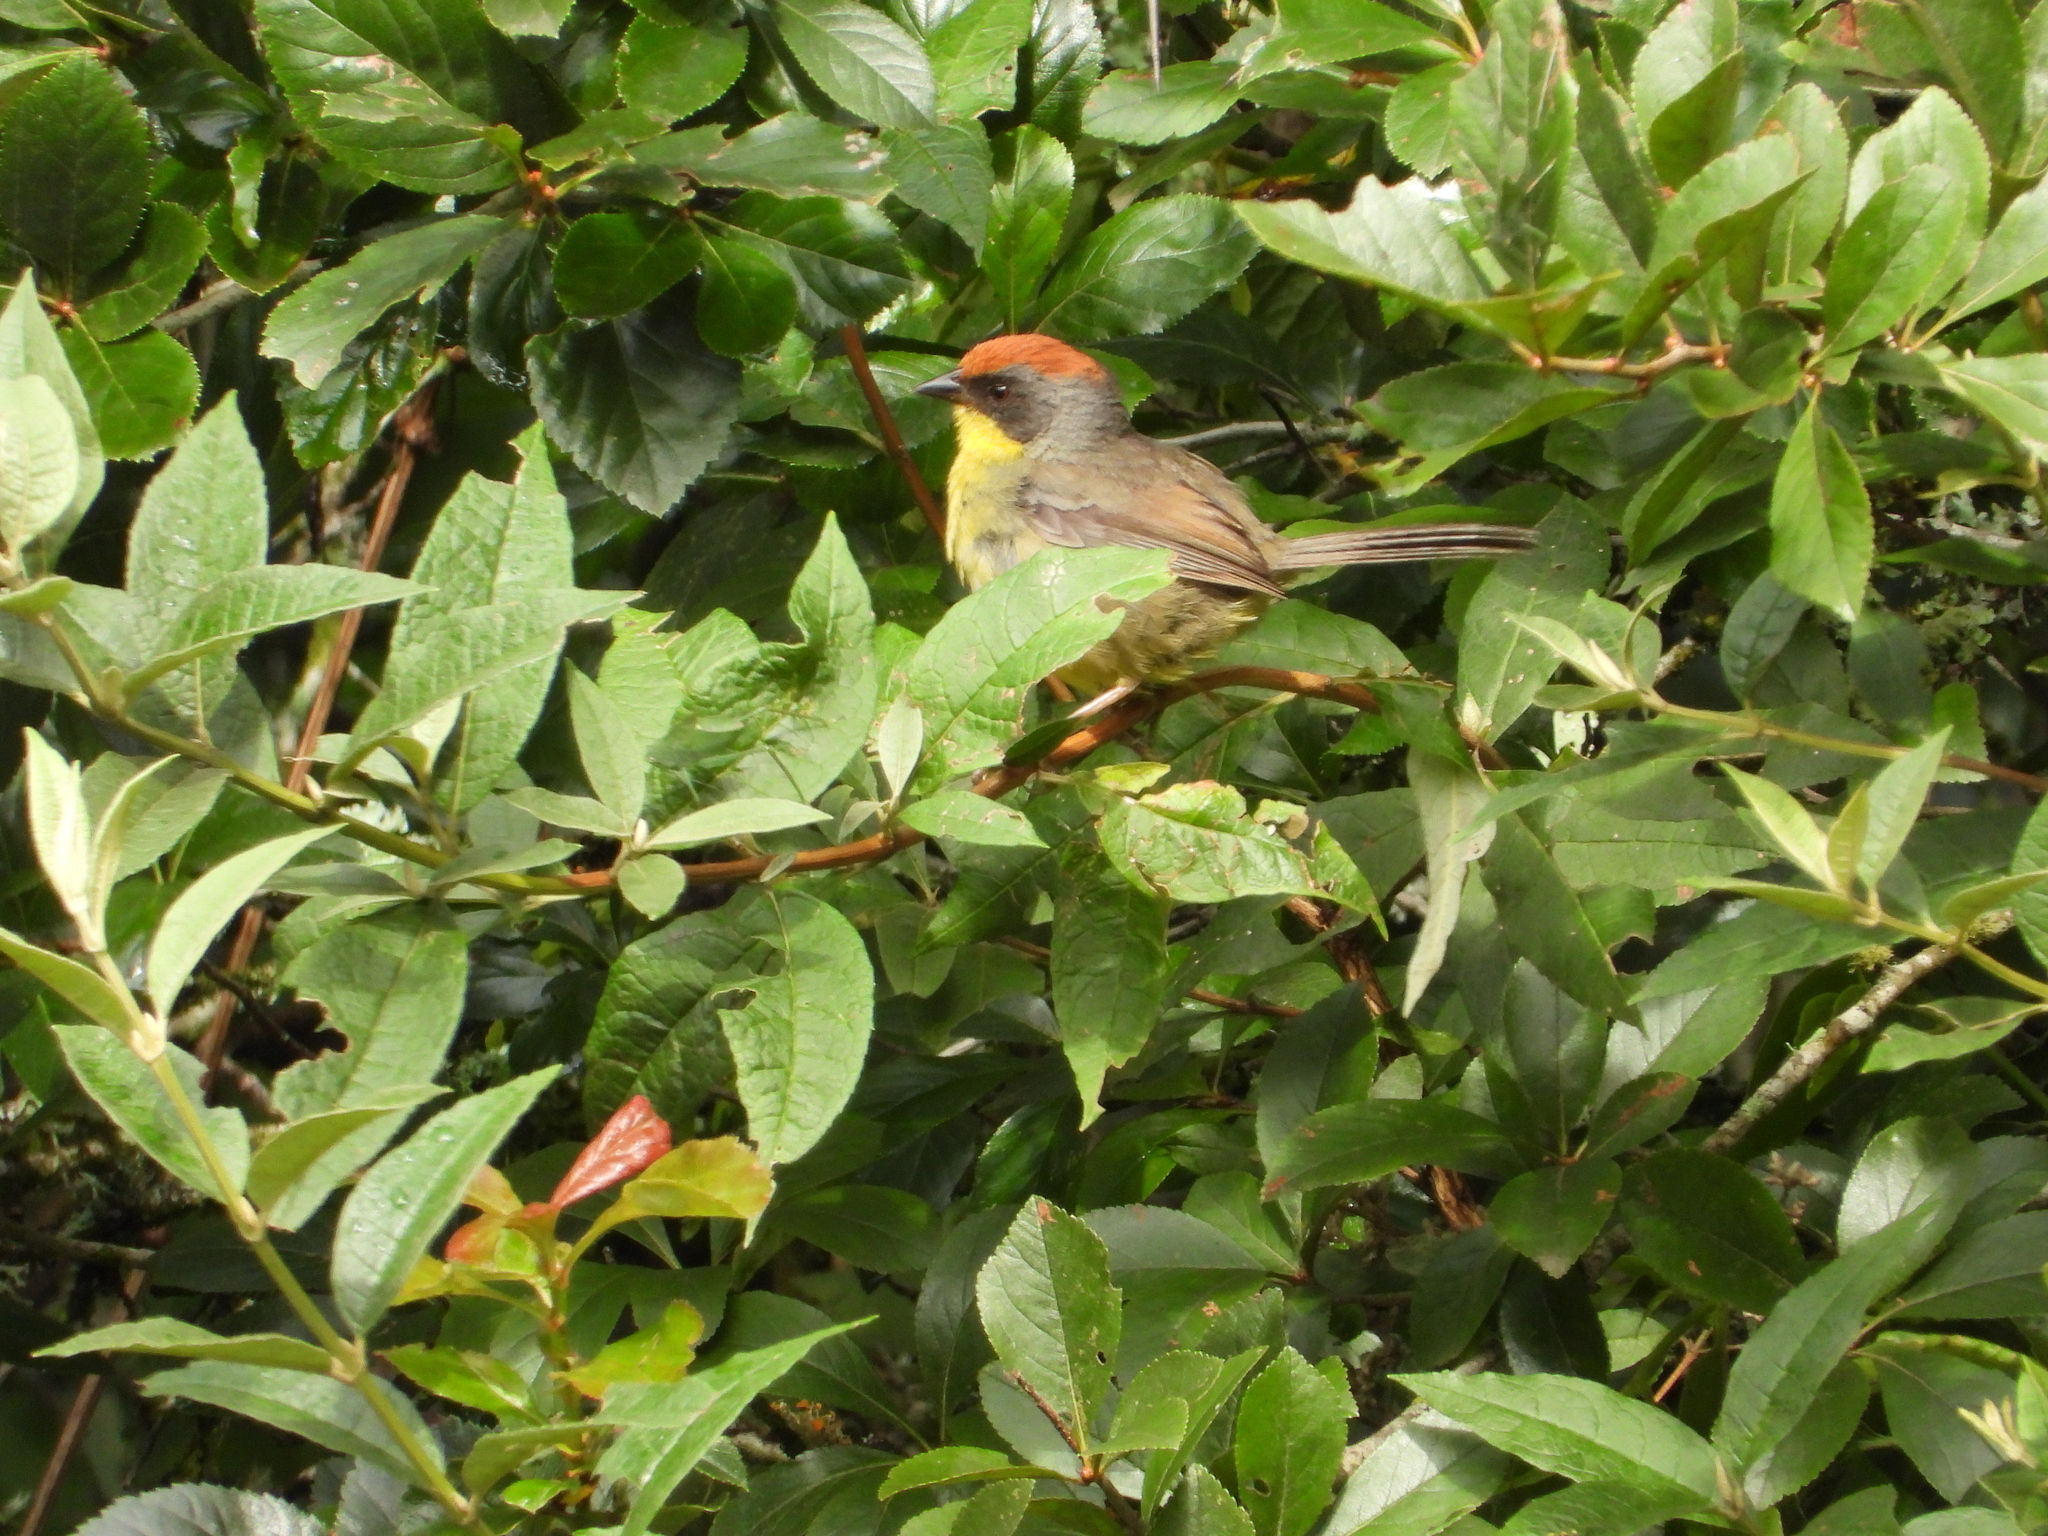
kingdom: Animalia
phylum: Chordata
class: Aves
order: Passeriformes
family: Passerellidae
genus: Atlapetes
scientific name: Atlapetes pileatus
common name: Rufous-capped brush-finch
